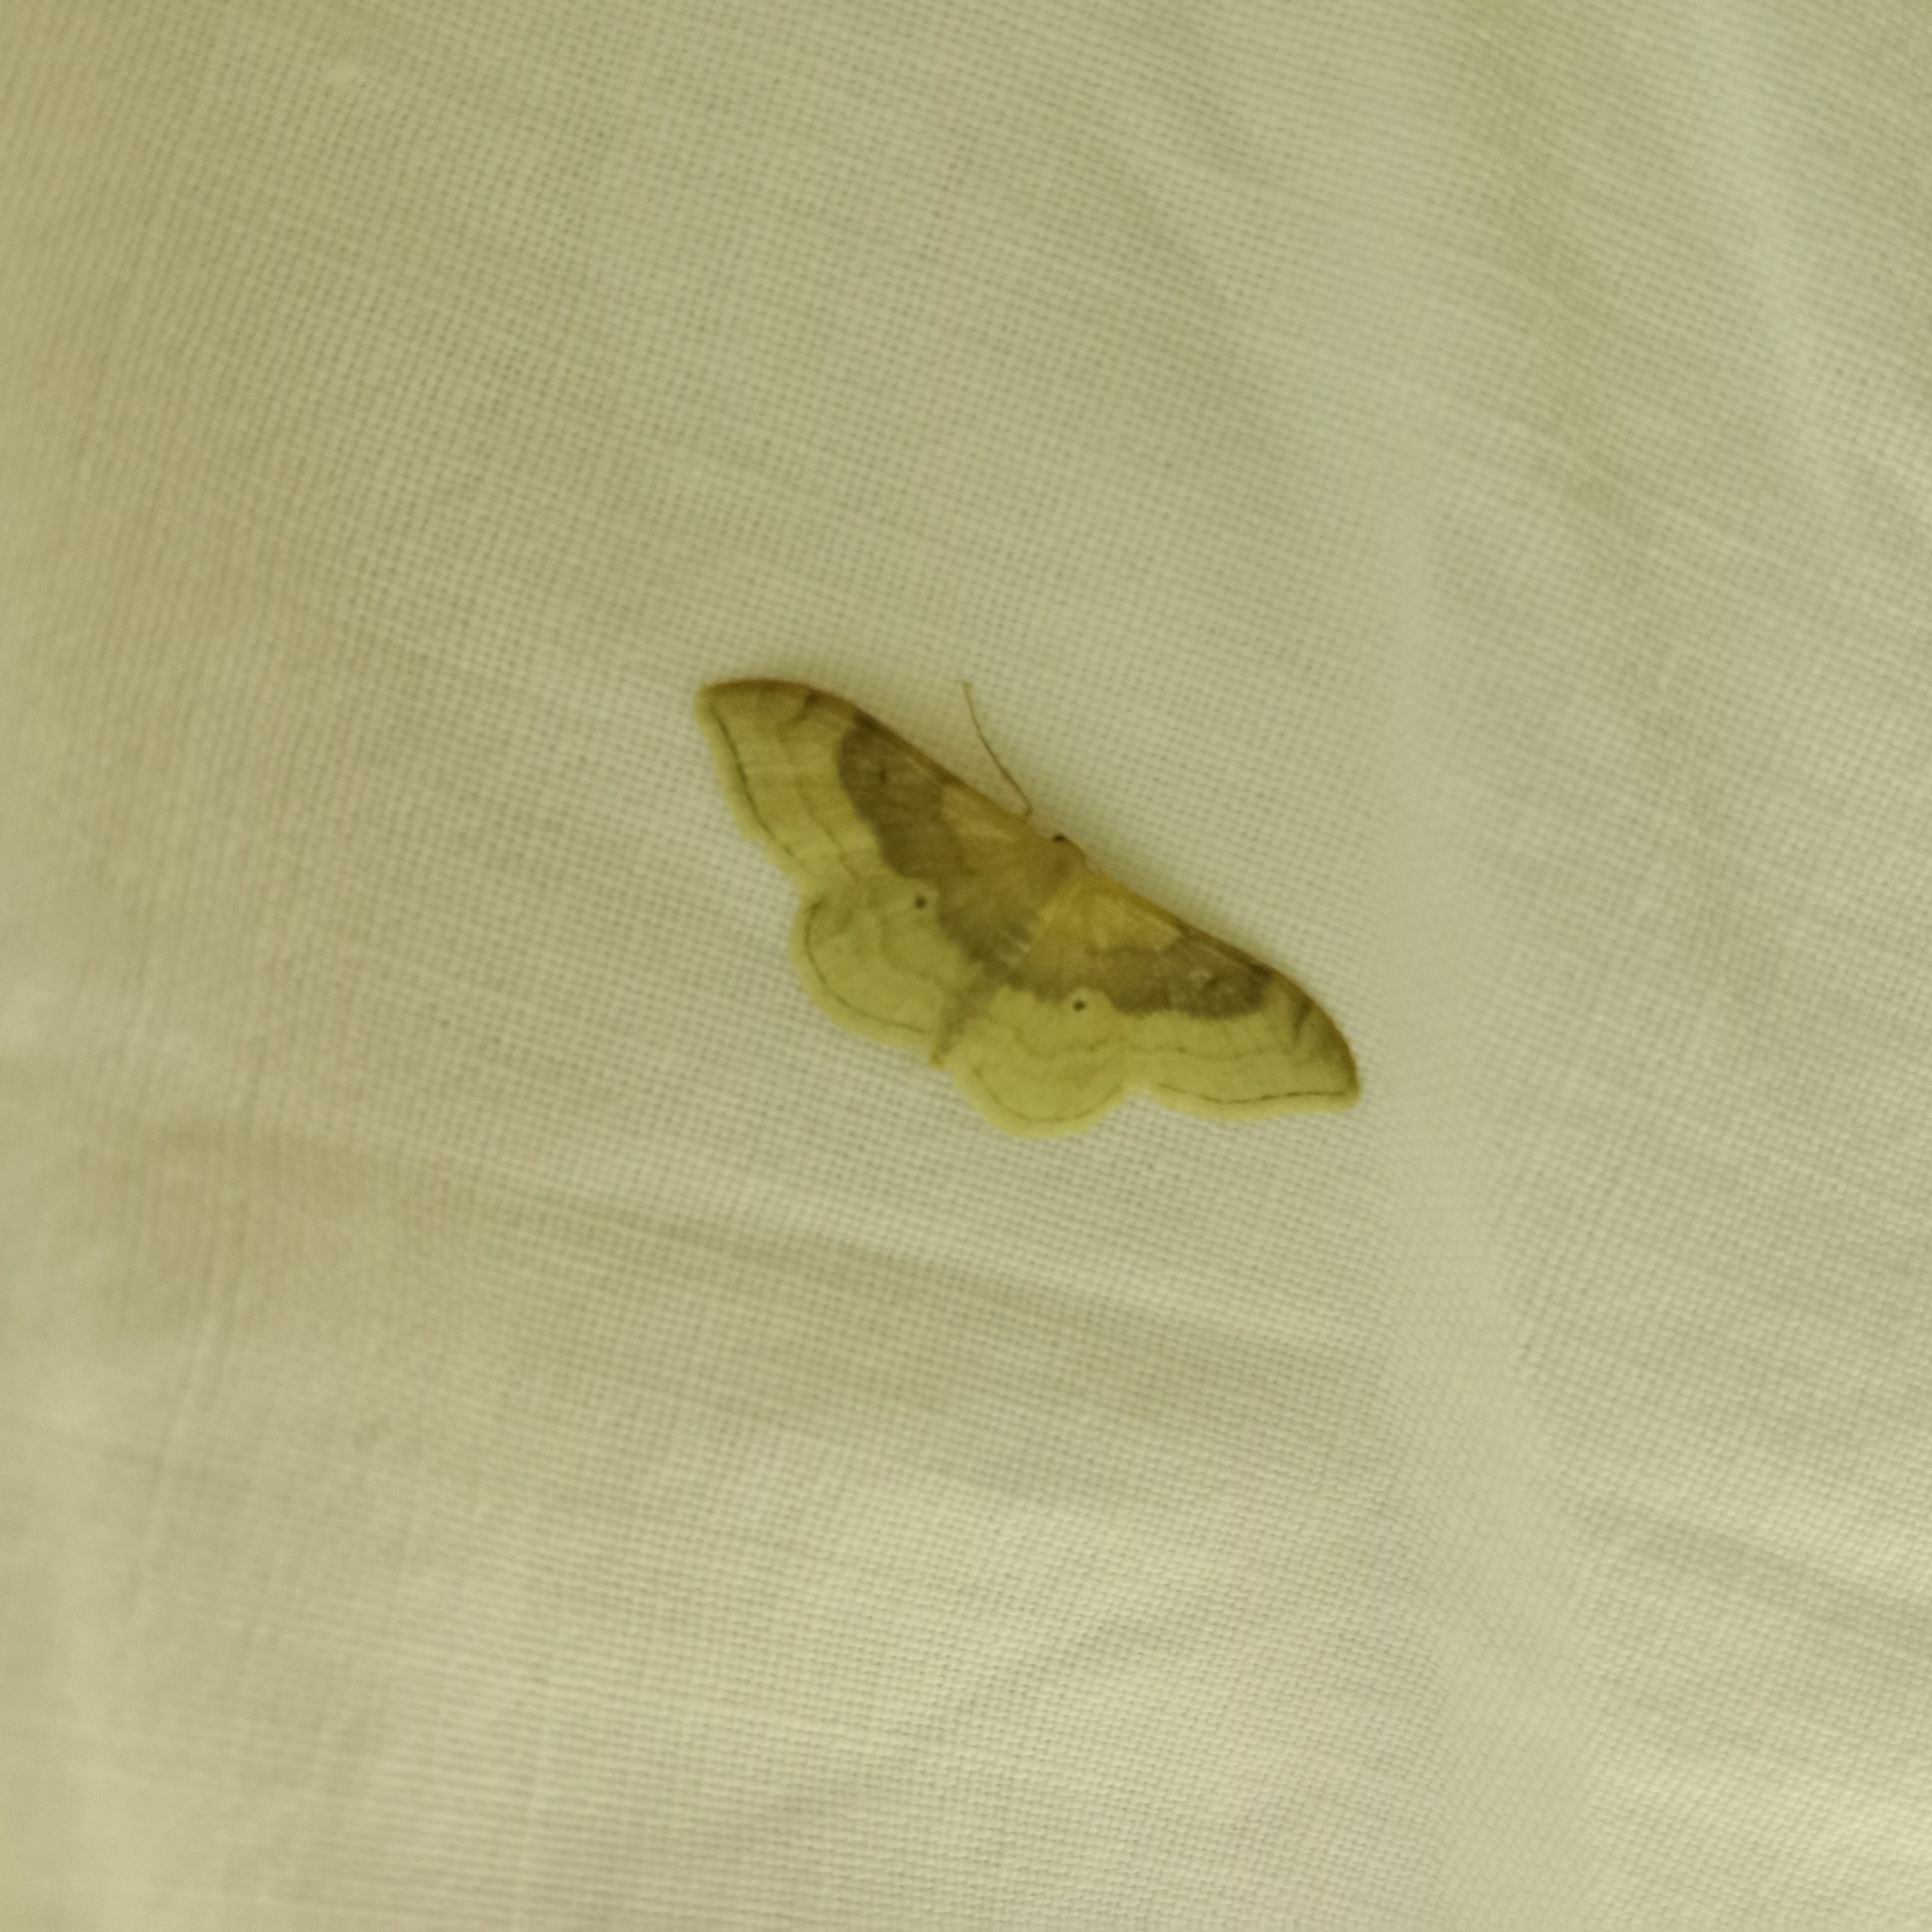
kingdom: Animalia
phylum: Arthropoda
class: Insecta
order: Lepidoptera
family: Geometridae
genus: Idaea
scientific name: Idaea degeneraria
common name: Portland ribbon wave
